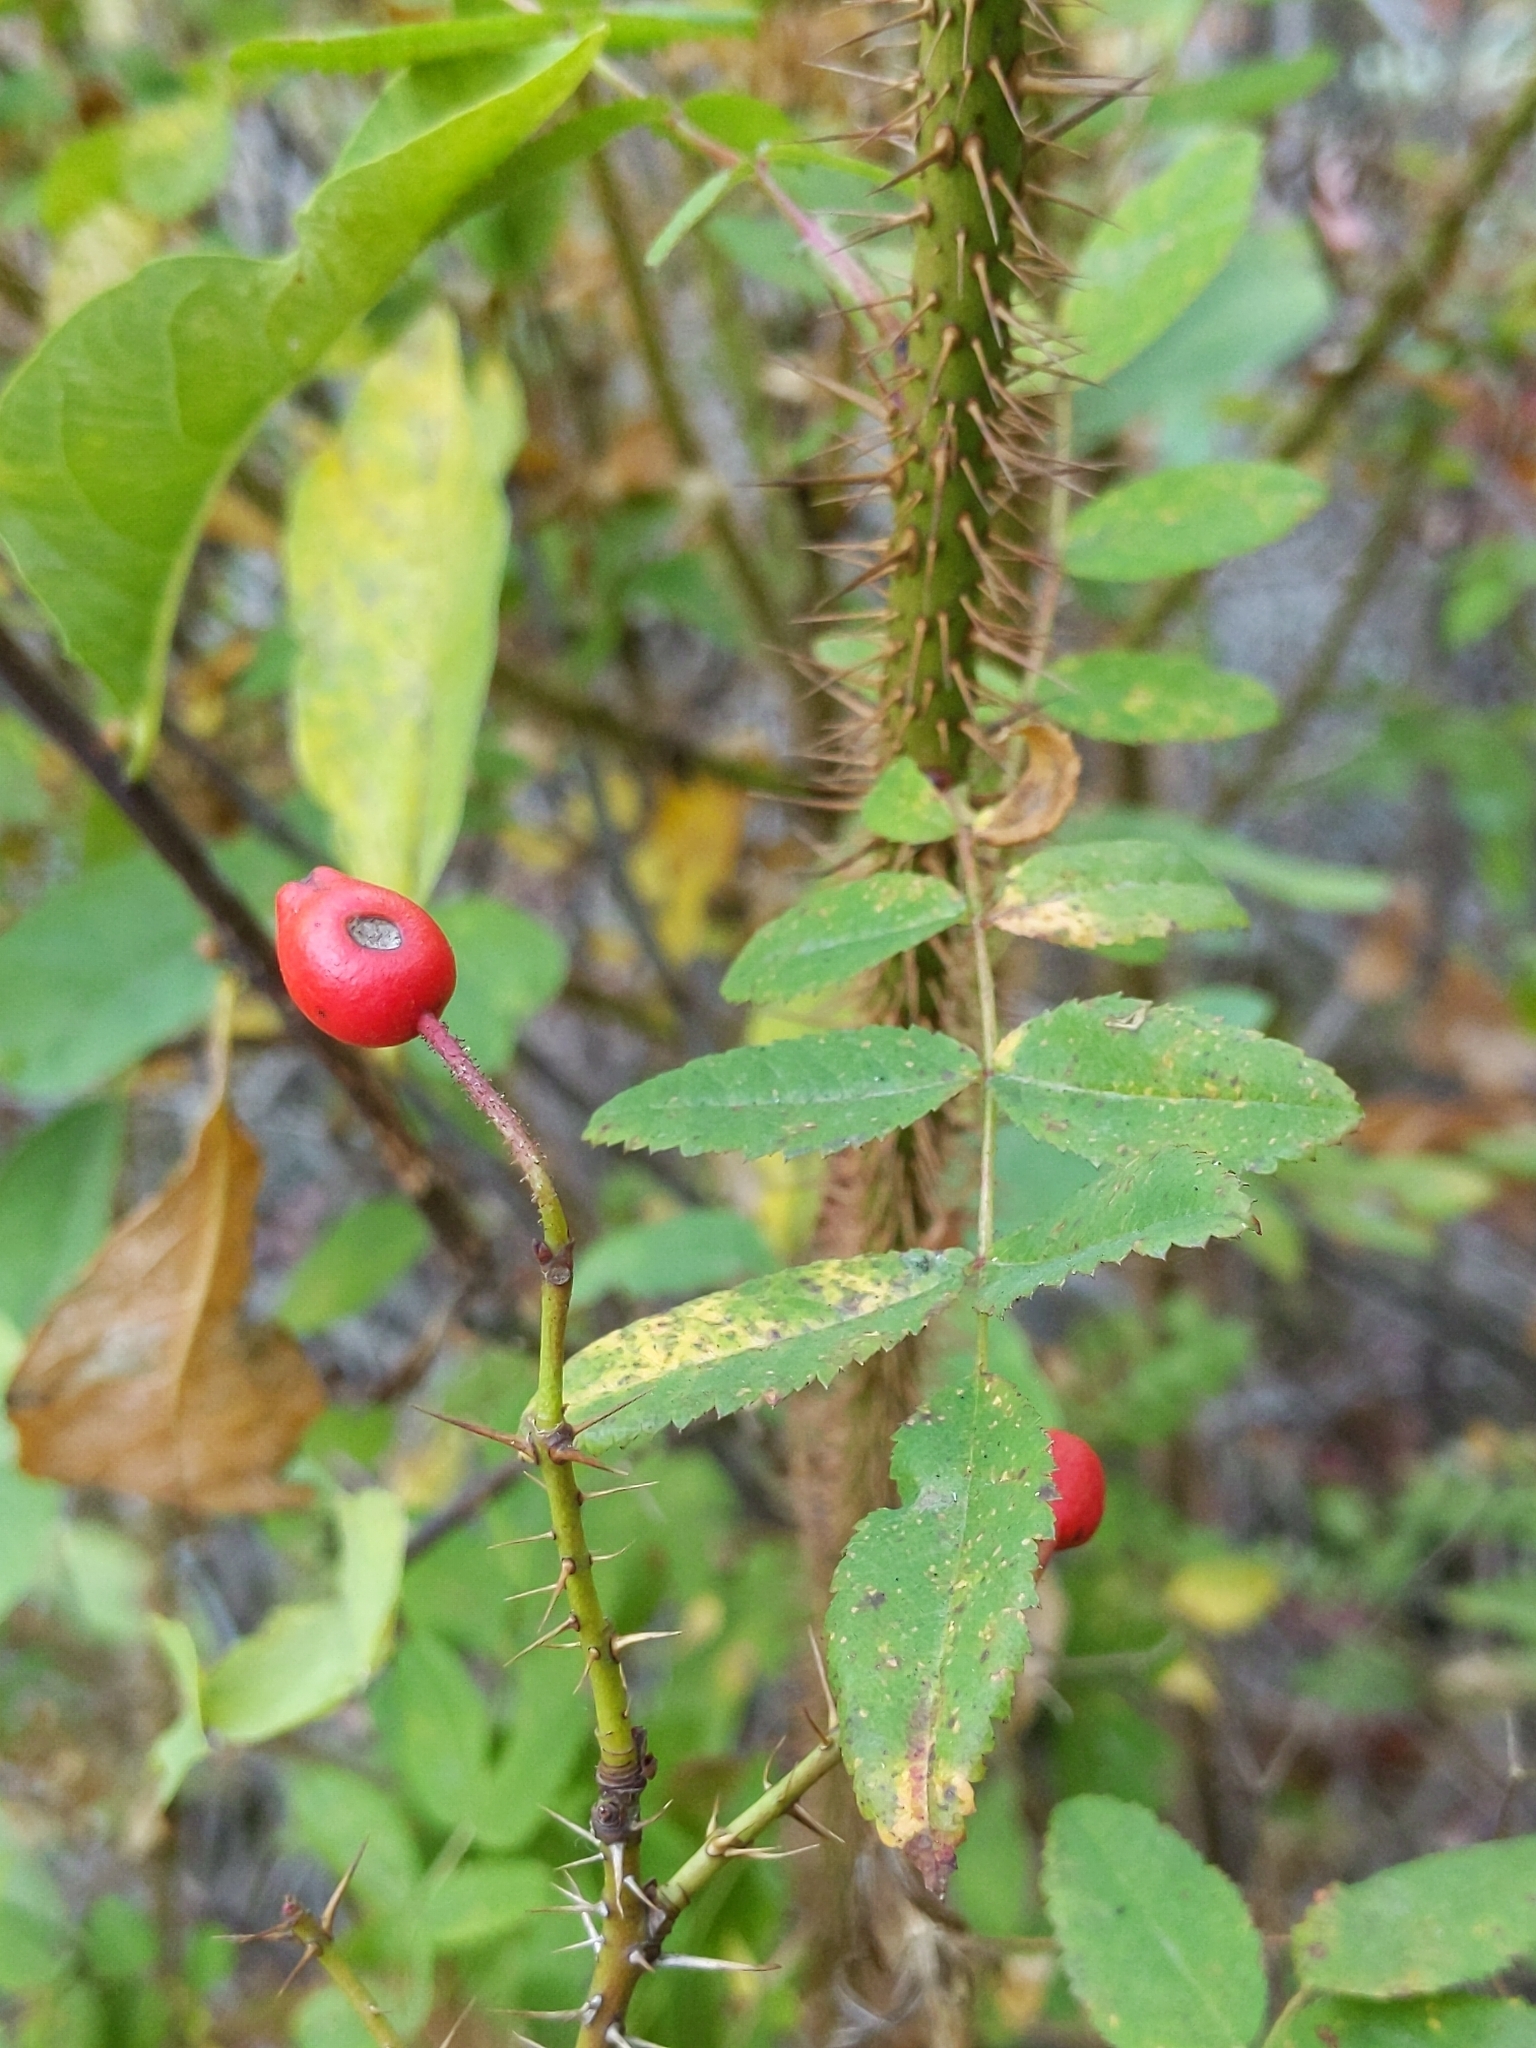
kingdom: Plantae
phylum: Tracheophyta
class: Magnoliopsida
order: Rosales
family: Rosaceae
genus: Rosa
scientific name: Rosa gymnocarpa
